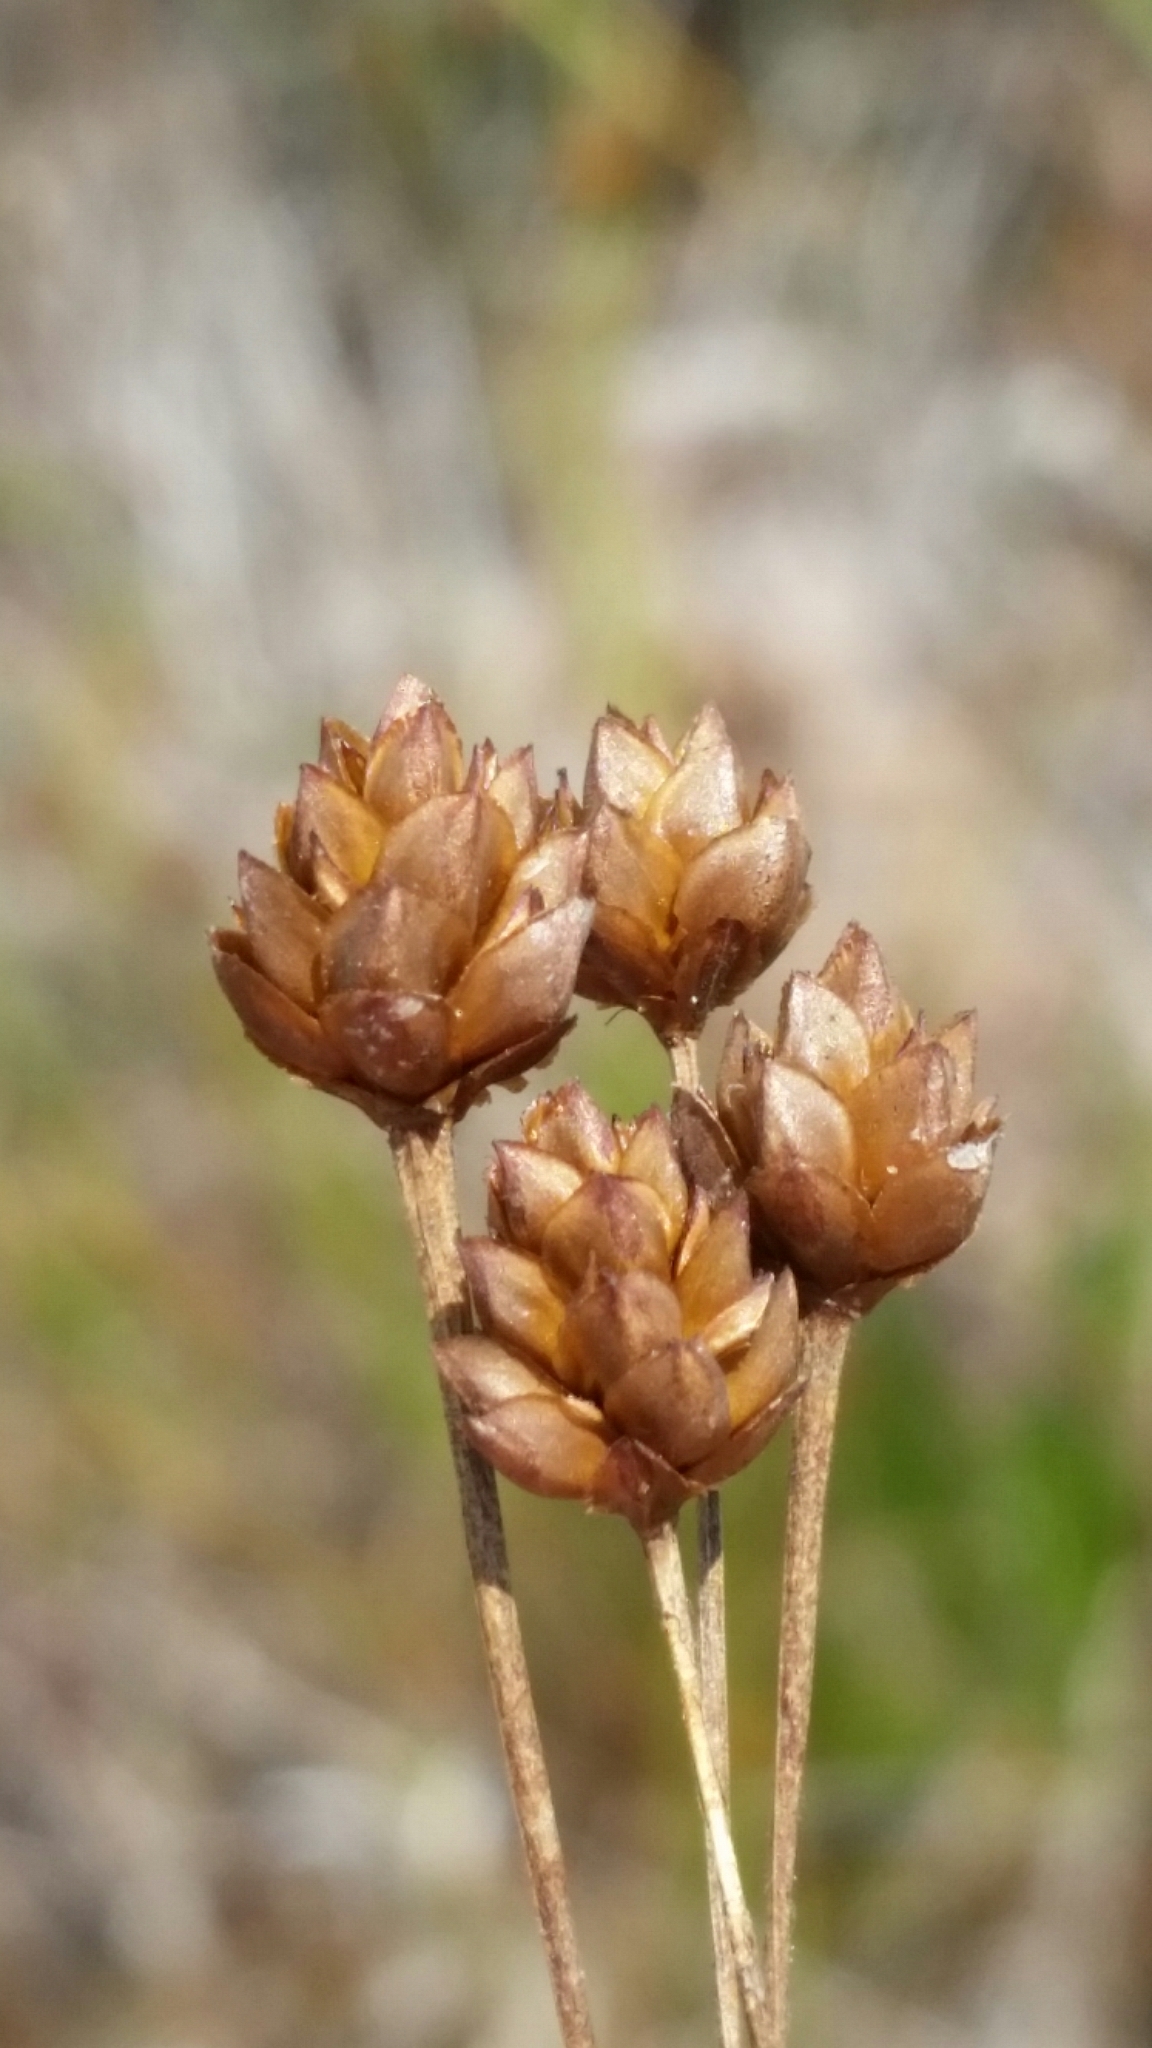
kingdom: Plantae
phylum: Tracheophyta
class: Liliopsida
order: Poales
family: Xyridaceae
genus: Xyris
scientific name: Xyris brevifolia
